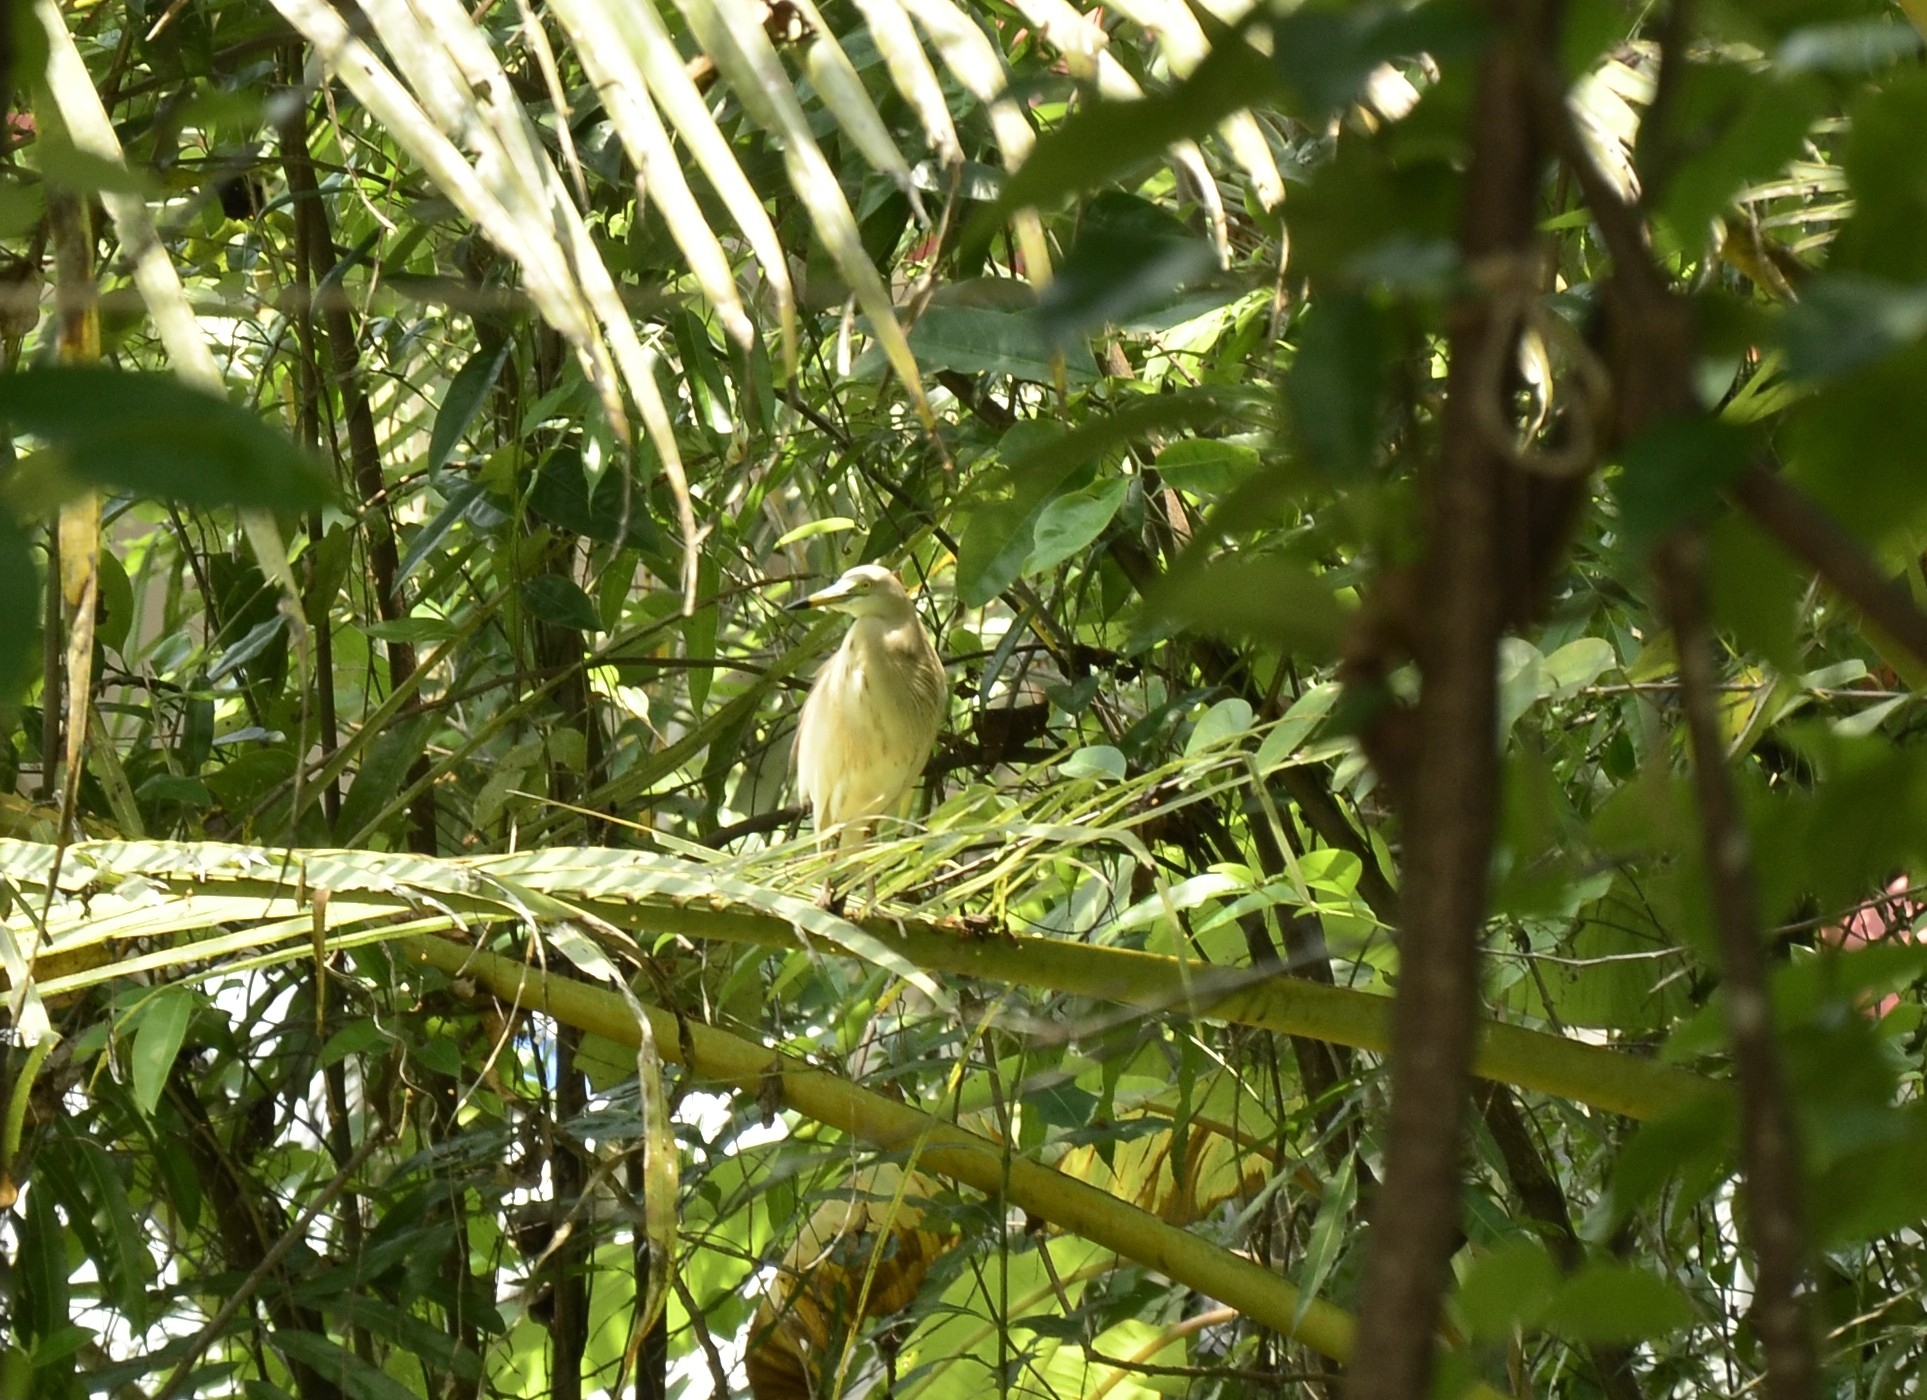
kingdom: Animalia
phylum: Chordata
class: Aves
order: Pelecaniformes
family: Ardeidae
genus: Ardeola
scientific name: Ardeola grayii
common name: Indian pond heron
